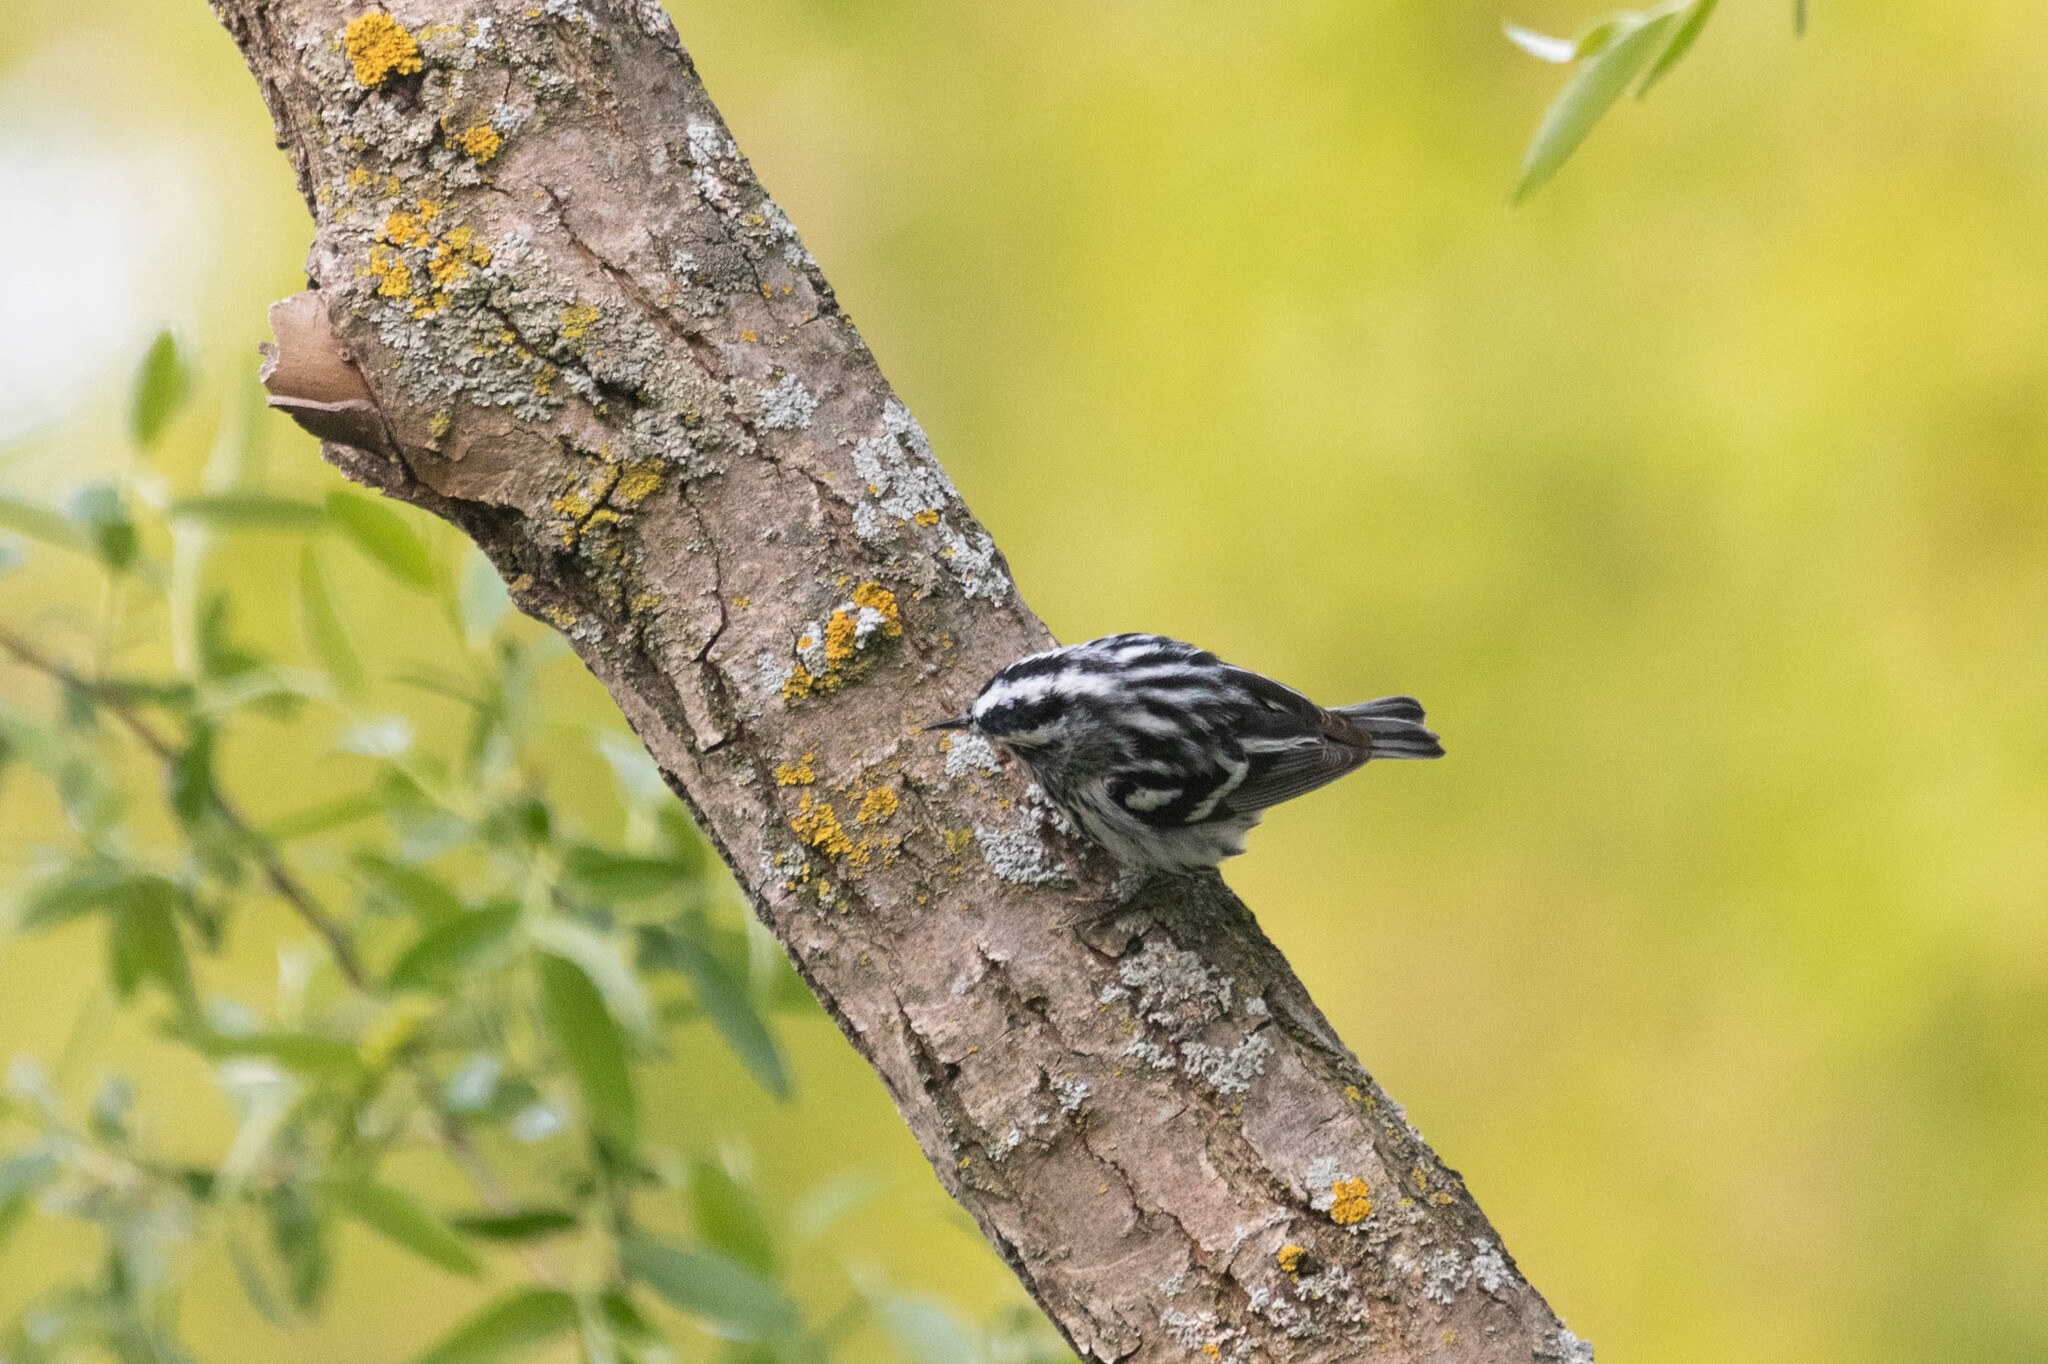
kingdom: Animalia
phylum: Chordata
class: Aves
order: Passeriformes
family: Parulidae
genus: Mniotilta
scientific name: Mniotilta varia
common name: Black-and-white warbler
